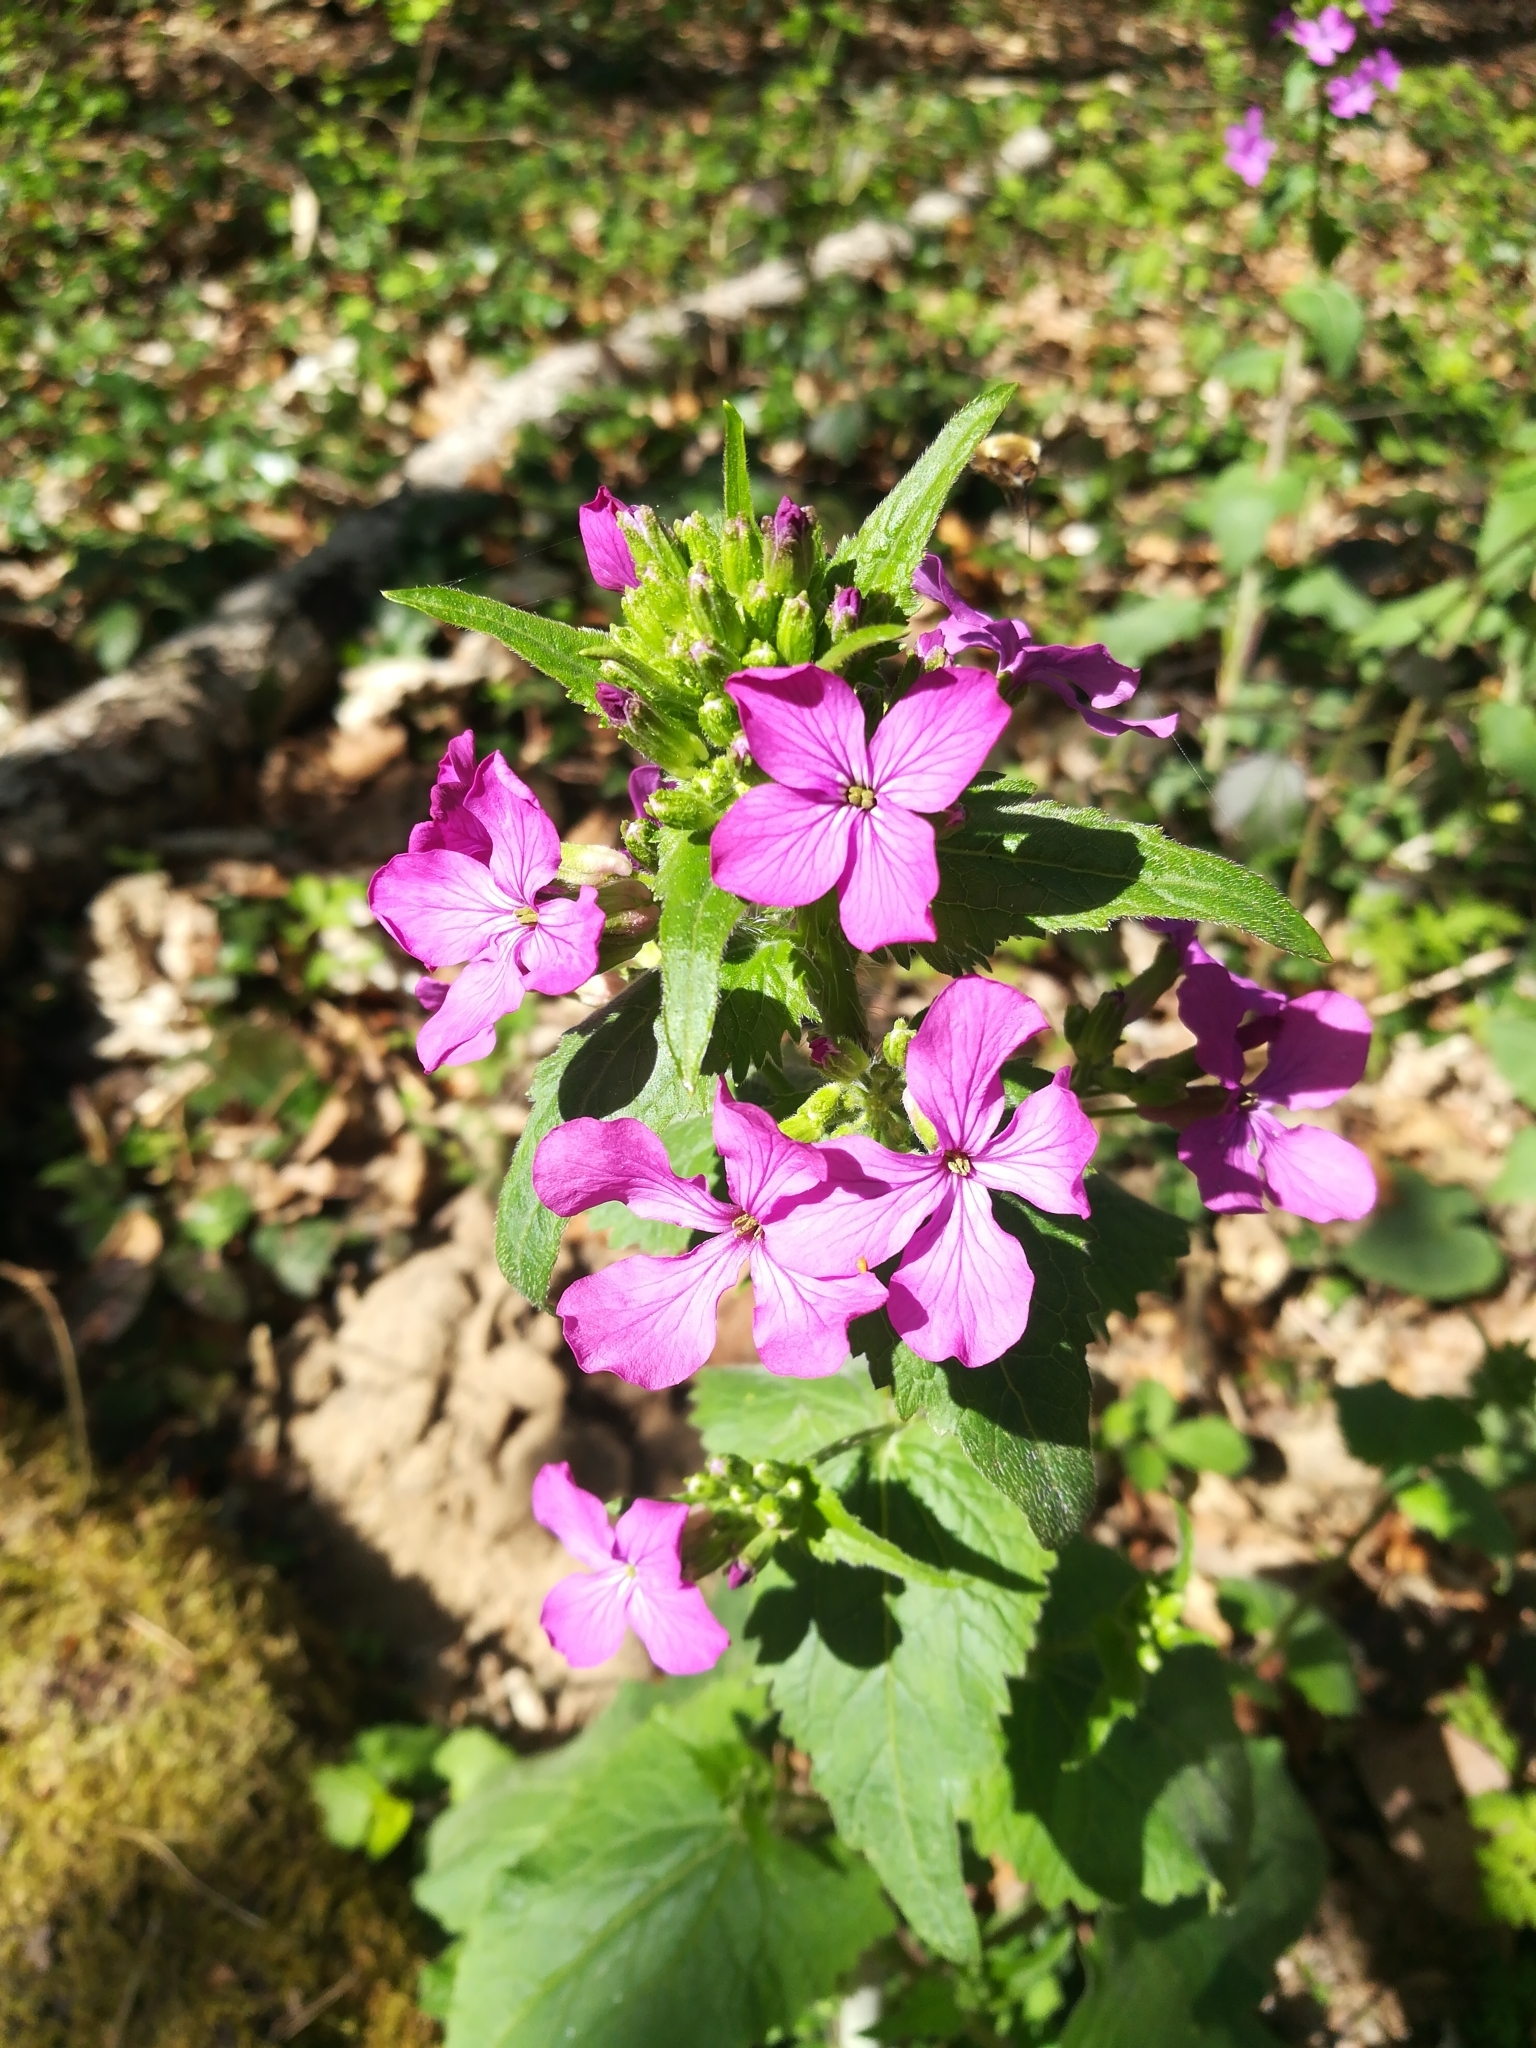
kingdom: Plantae
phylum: Tracheophyta
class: Magnoliopsida
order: Brassicales
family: Brassicaceae
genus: Lunaria
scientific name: Lunaria annua
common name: Honesty
